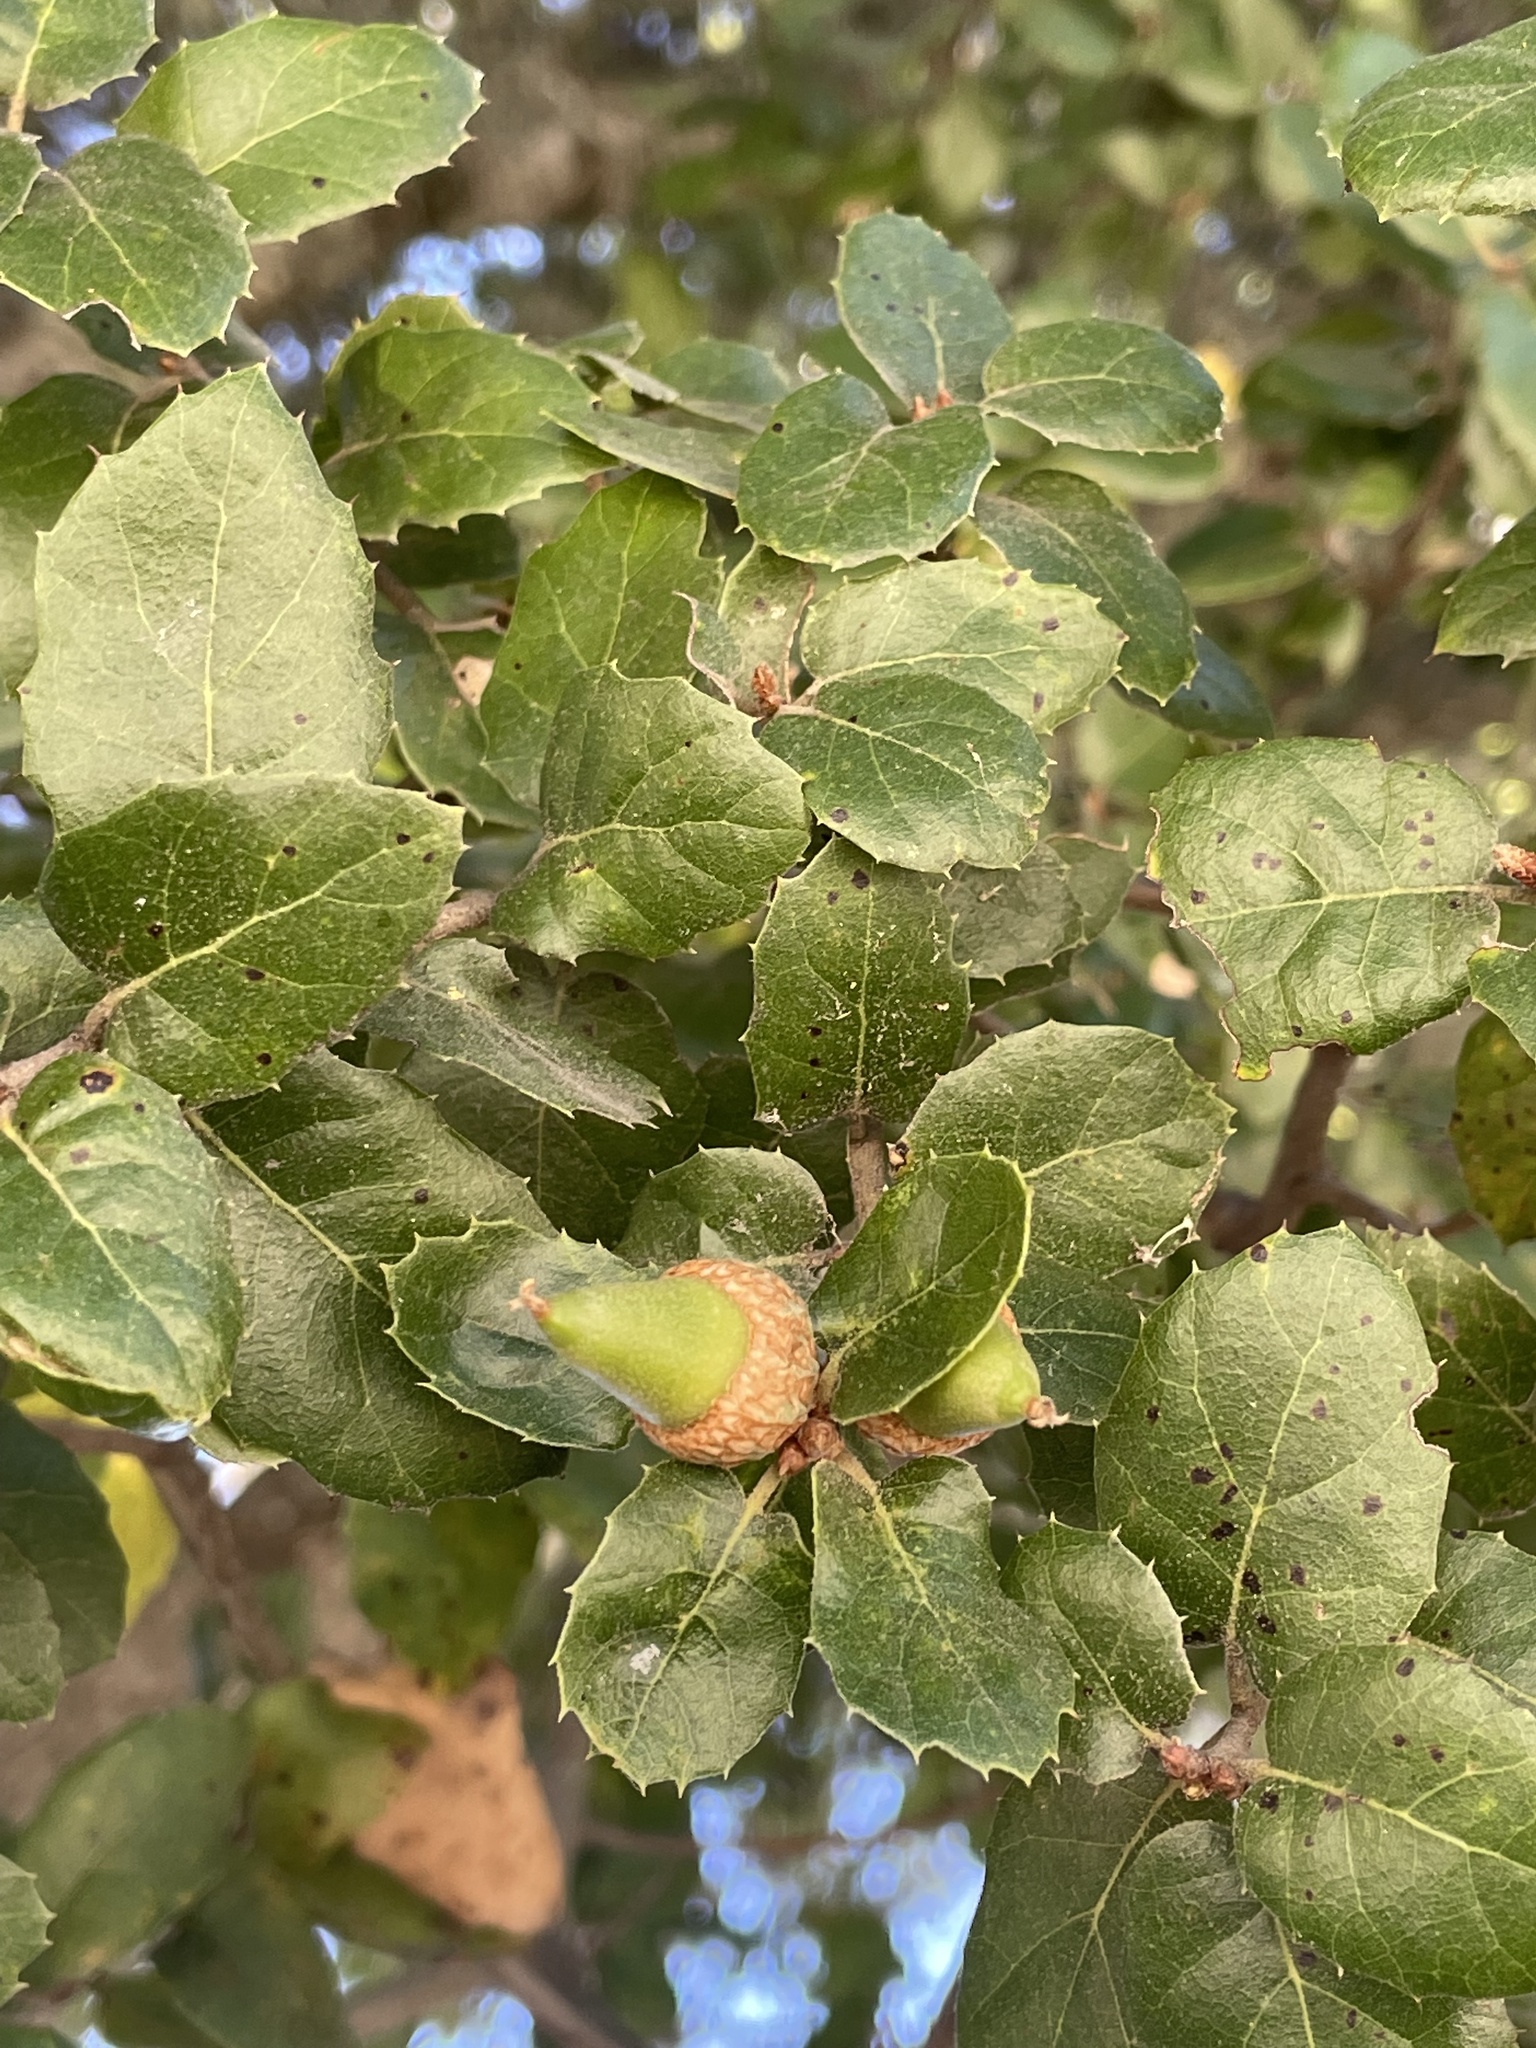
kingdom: Plantae
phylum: Tracheophyta
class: Magnoliopsida
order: Fagales
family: Fagaceae
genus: Quercus
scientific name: Quercus agrifolia
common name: California live oak
